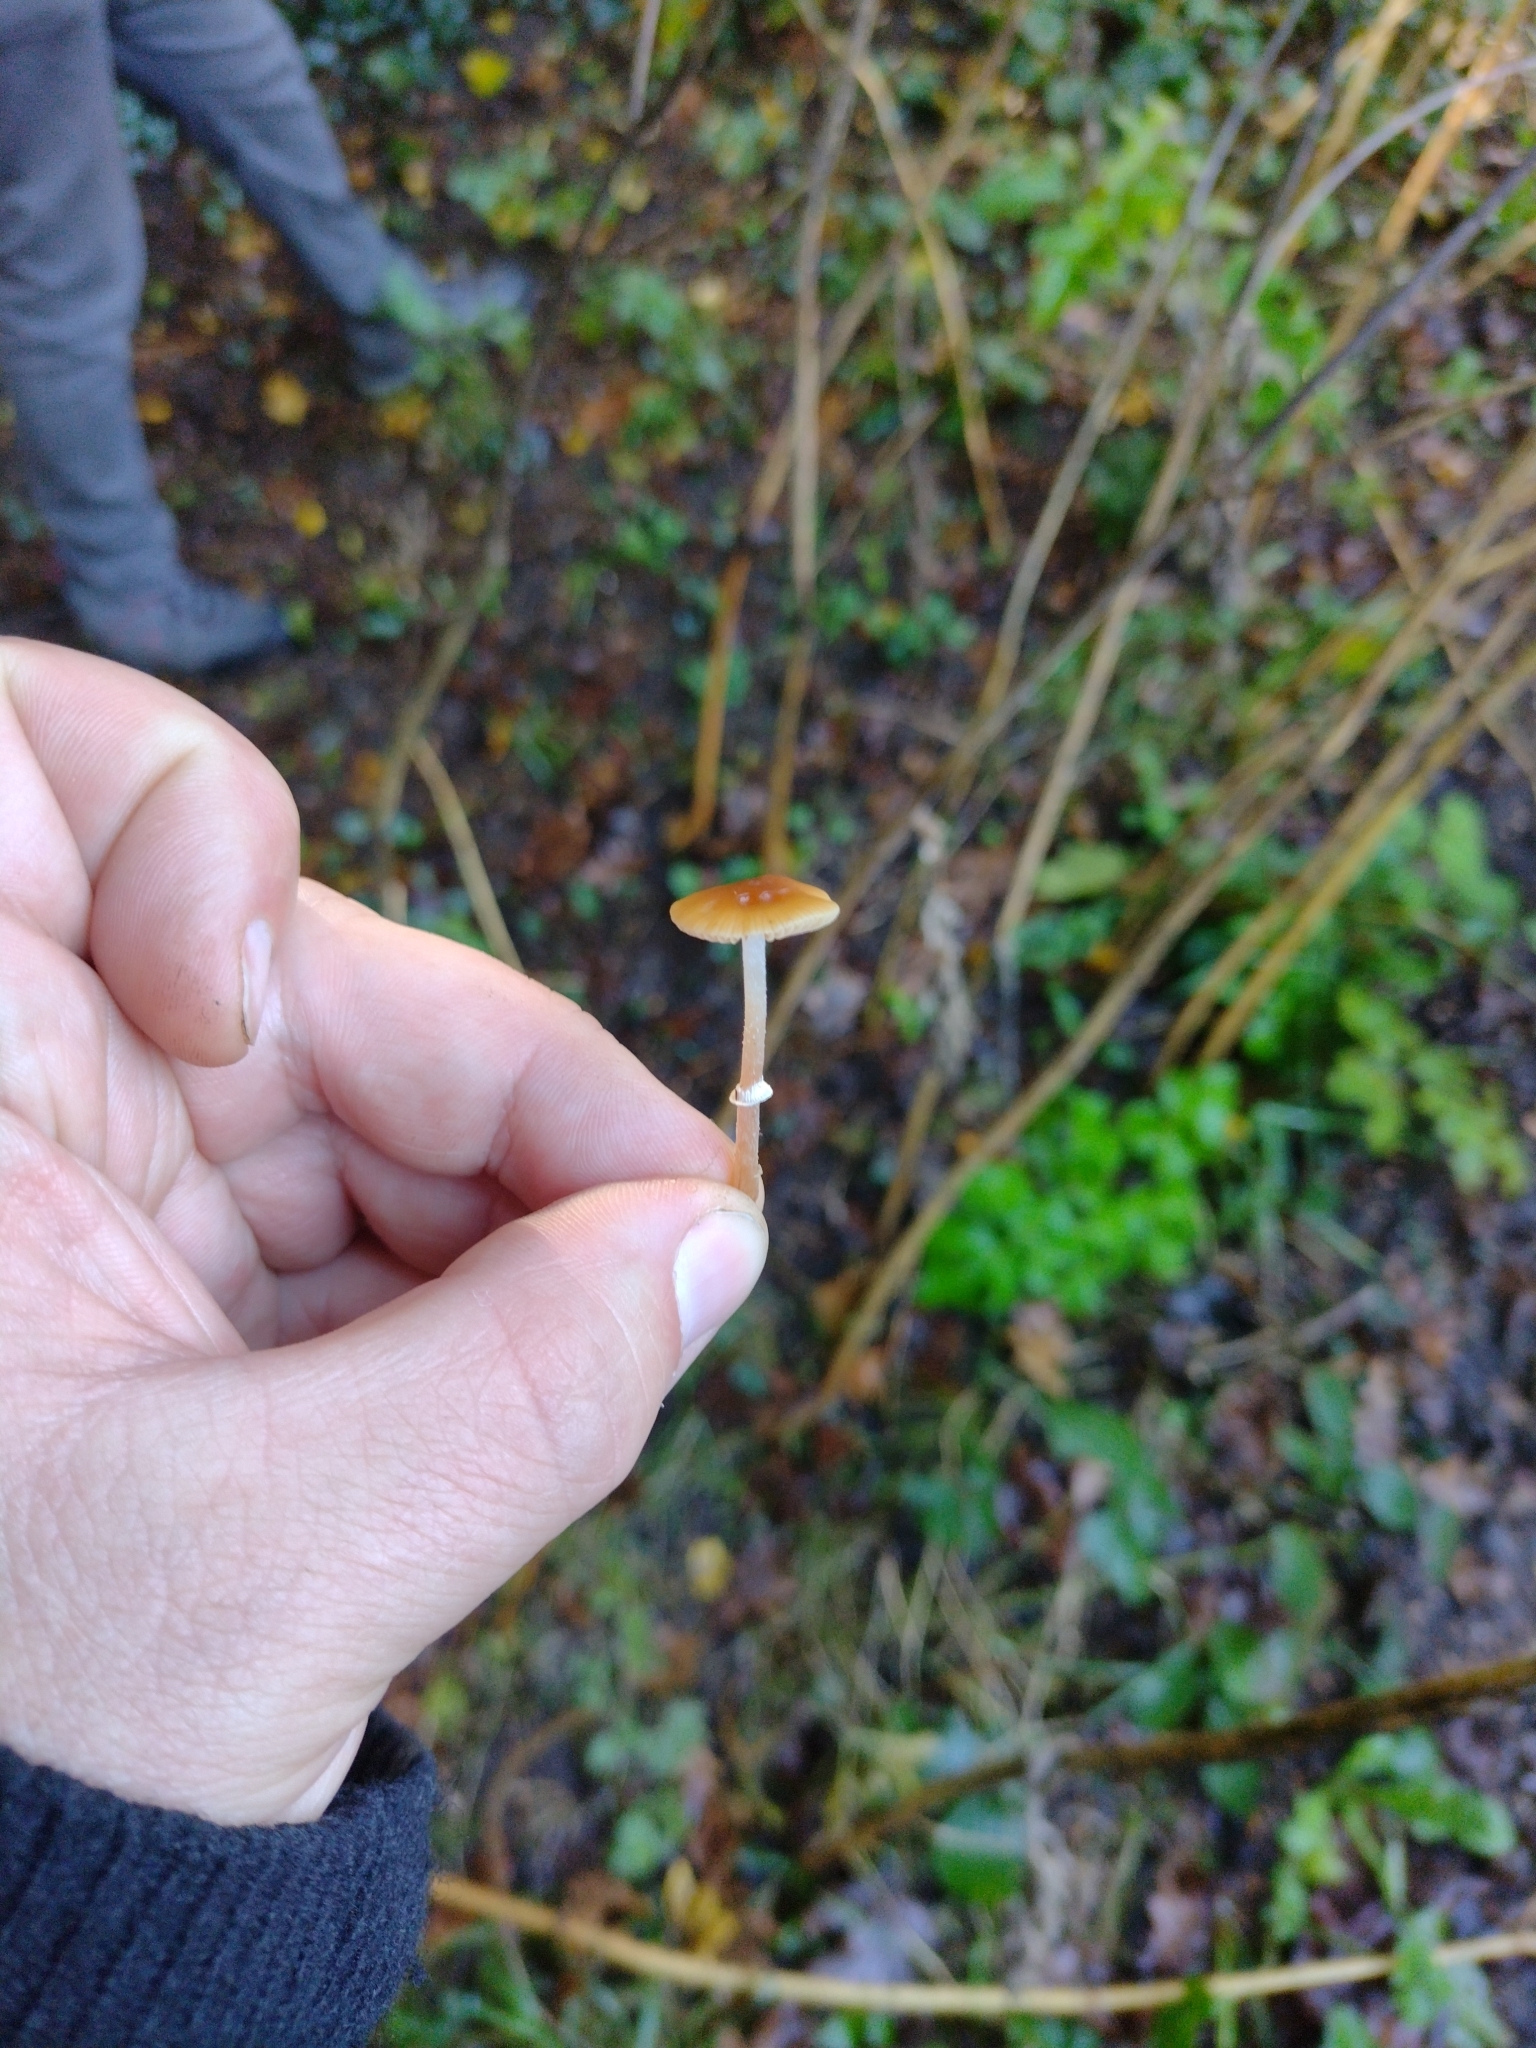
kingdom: Fungi
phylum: Basidiomycota
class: Agaricomycetes
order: Agaricales
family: Bolbitiaceae
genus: Conocybe
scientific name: Conocybe rugosa
